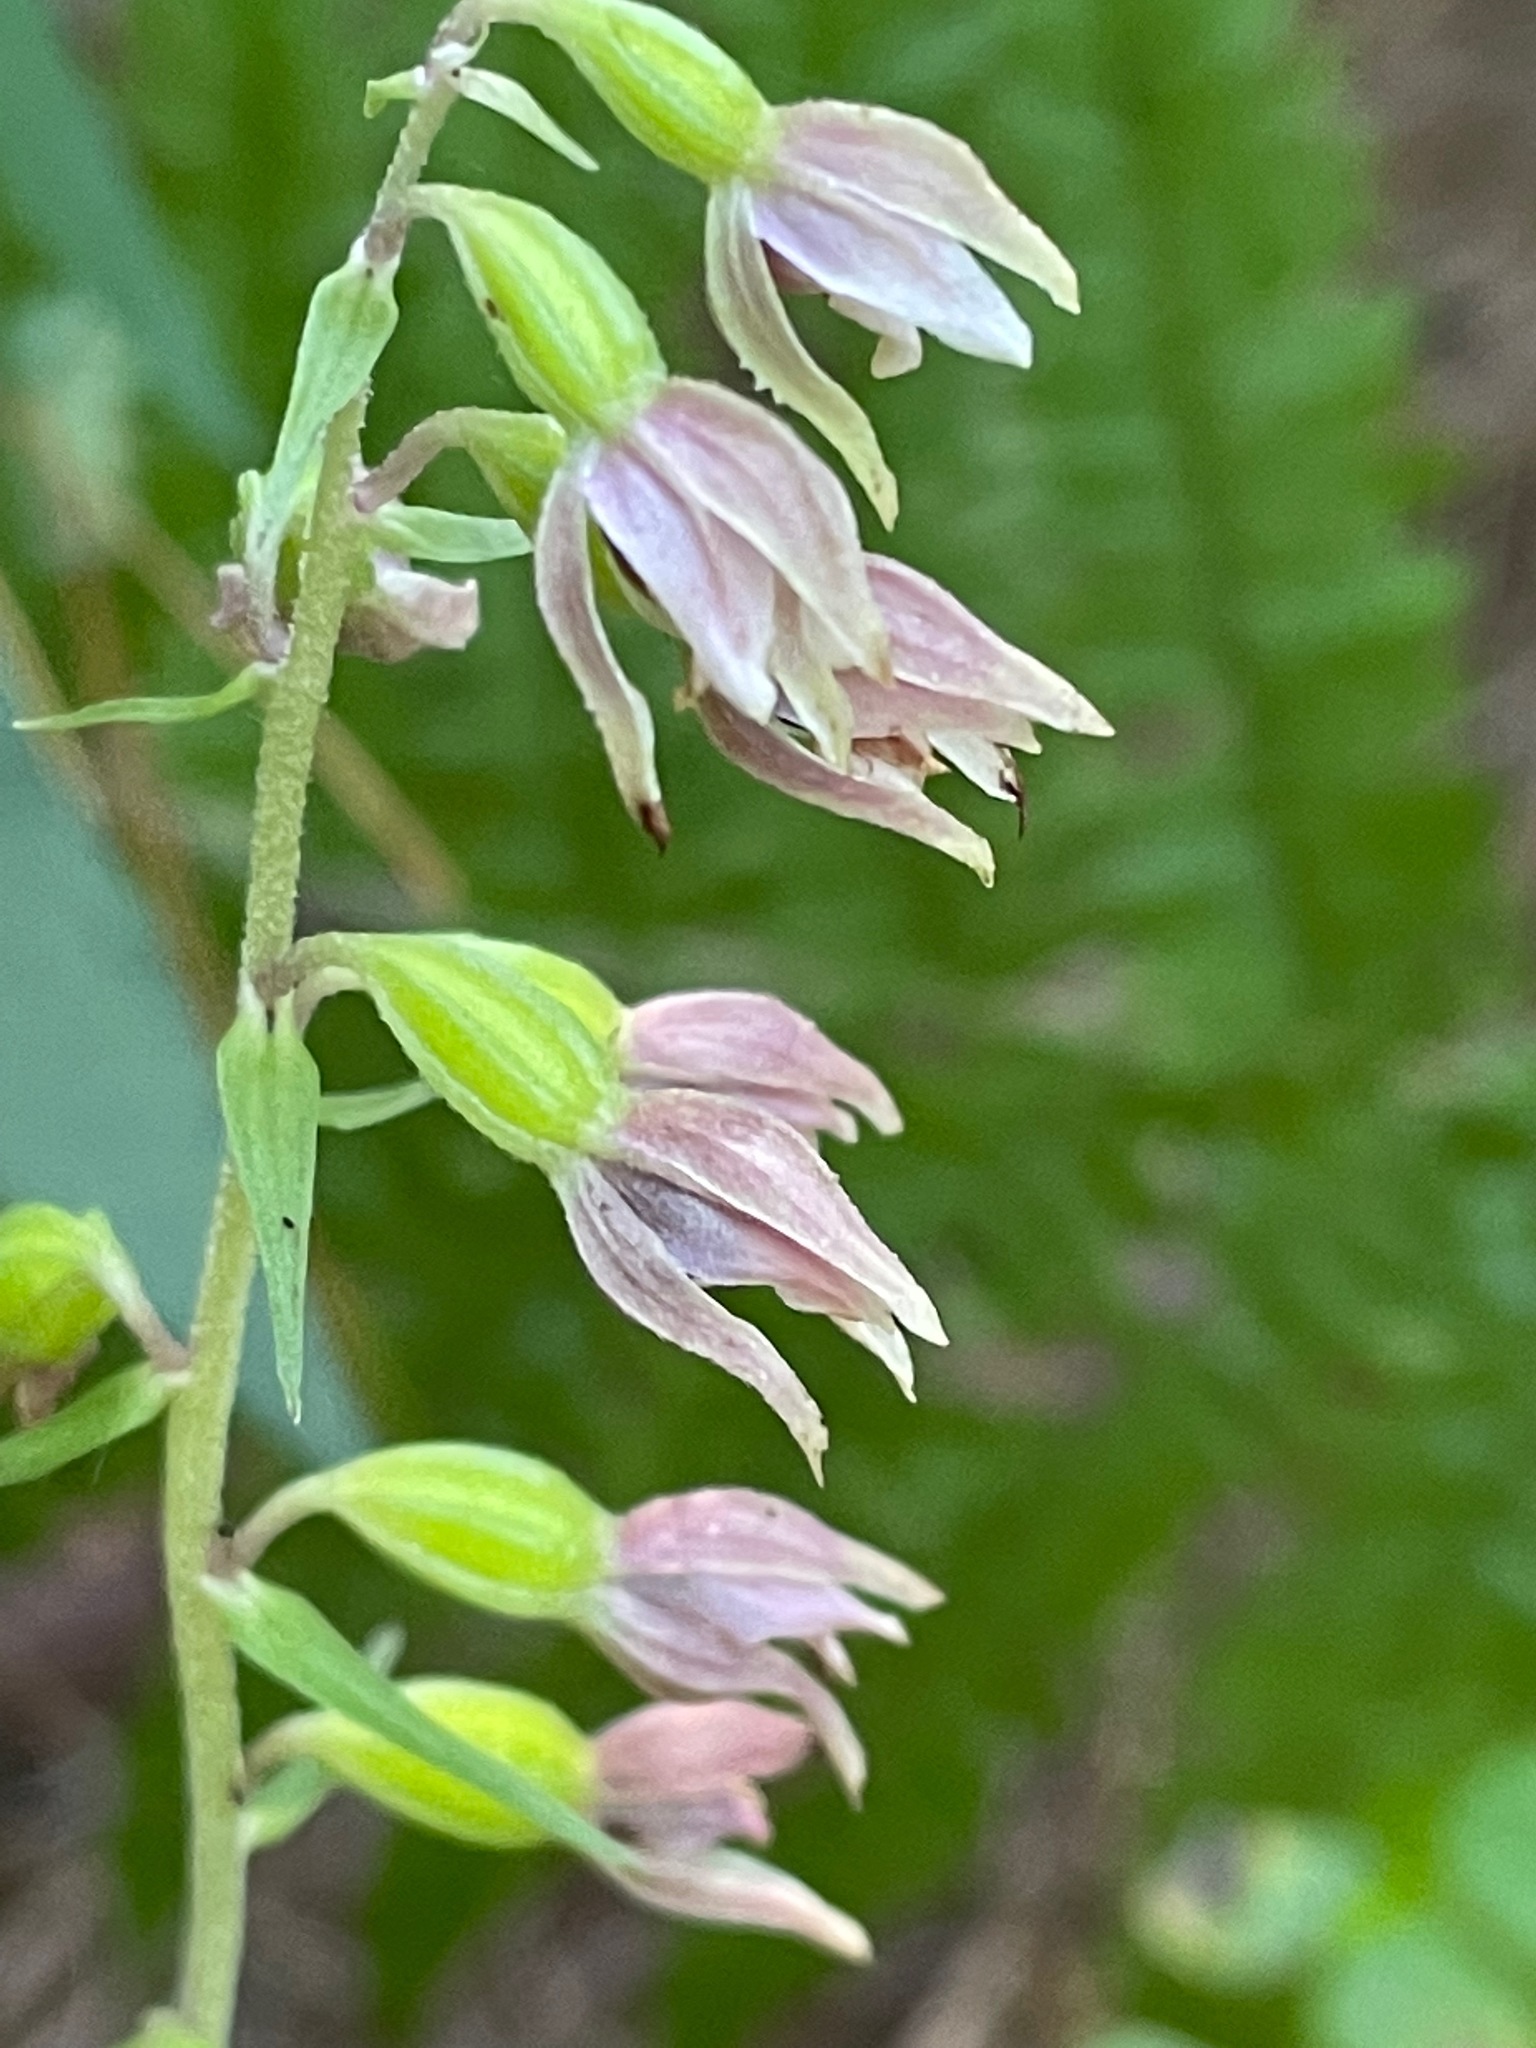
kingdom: Plantae
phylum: Tracheophyta
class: Liliopsida
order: Asparagales
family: Orchidaceae
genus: Epipactis
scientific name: Epipactis helleborine
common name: Broad-leaved helleborine
